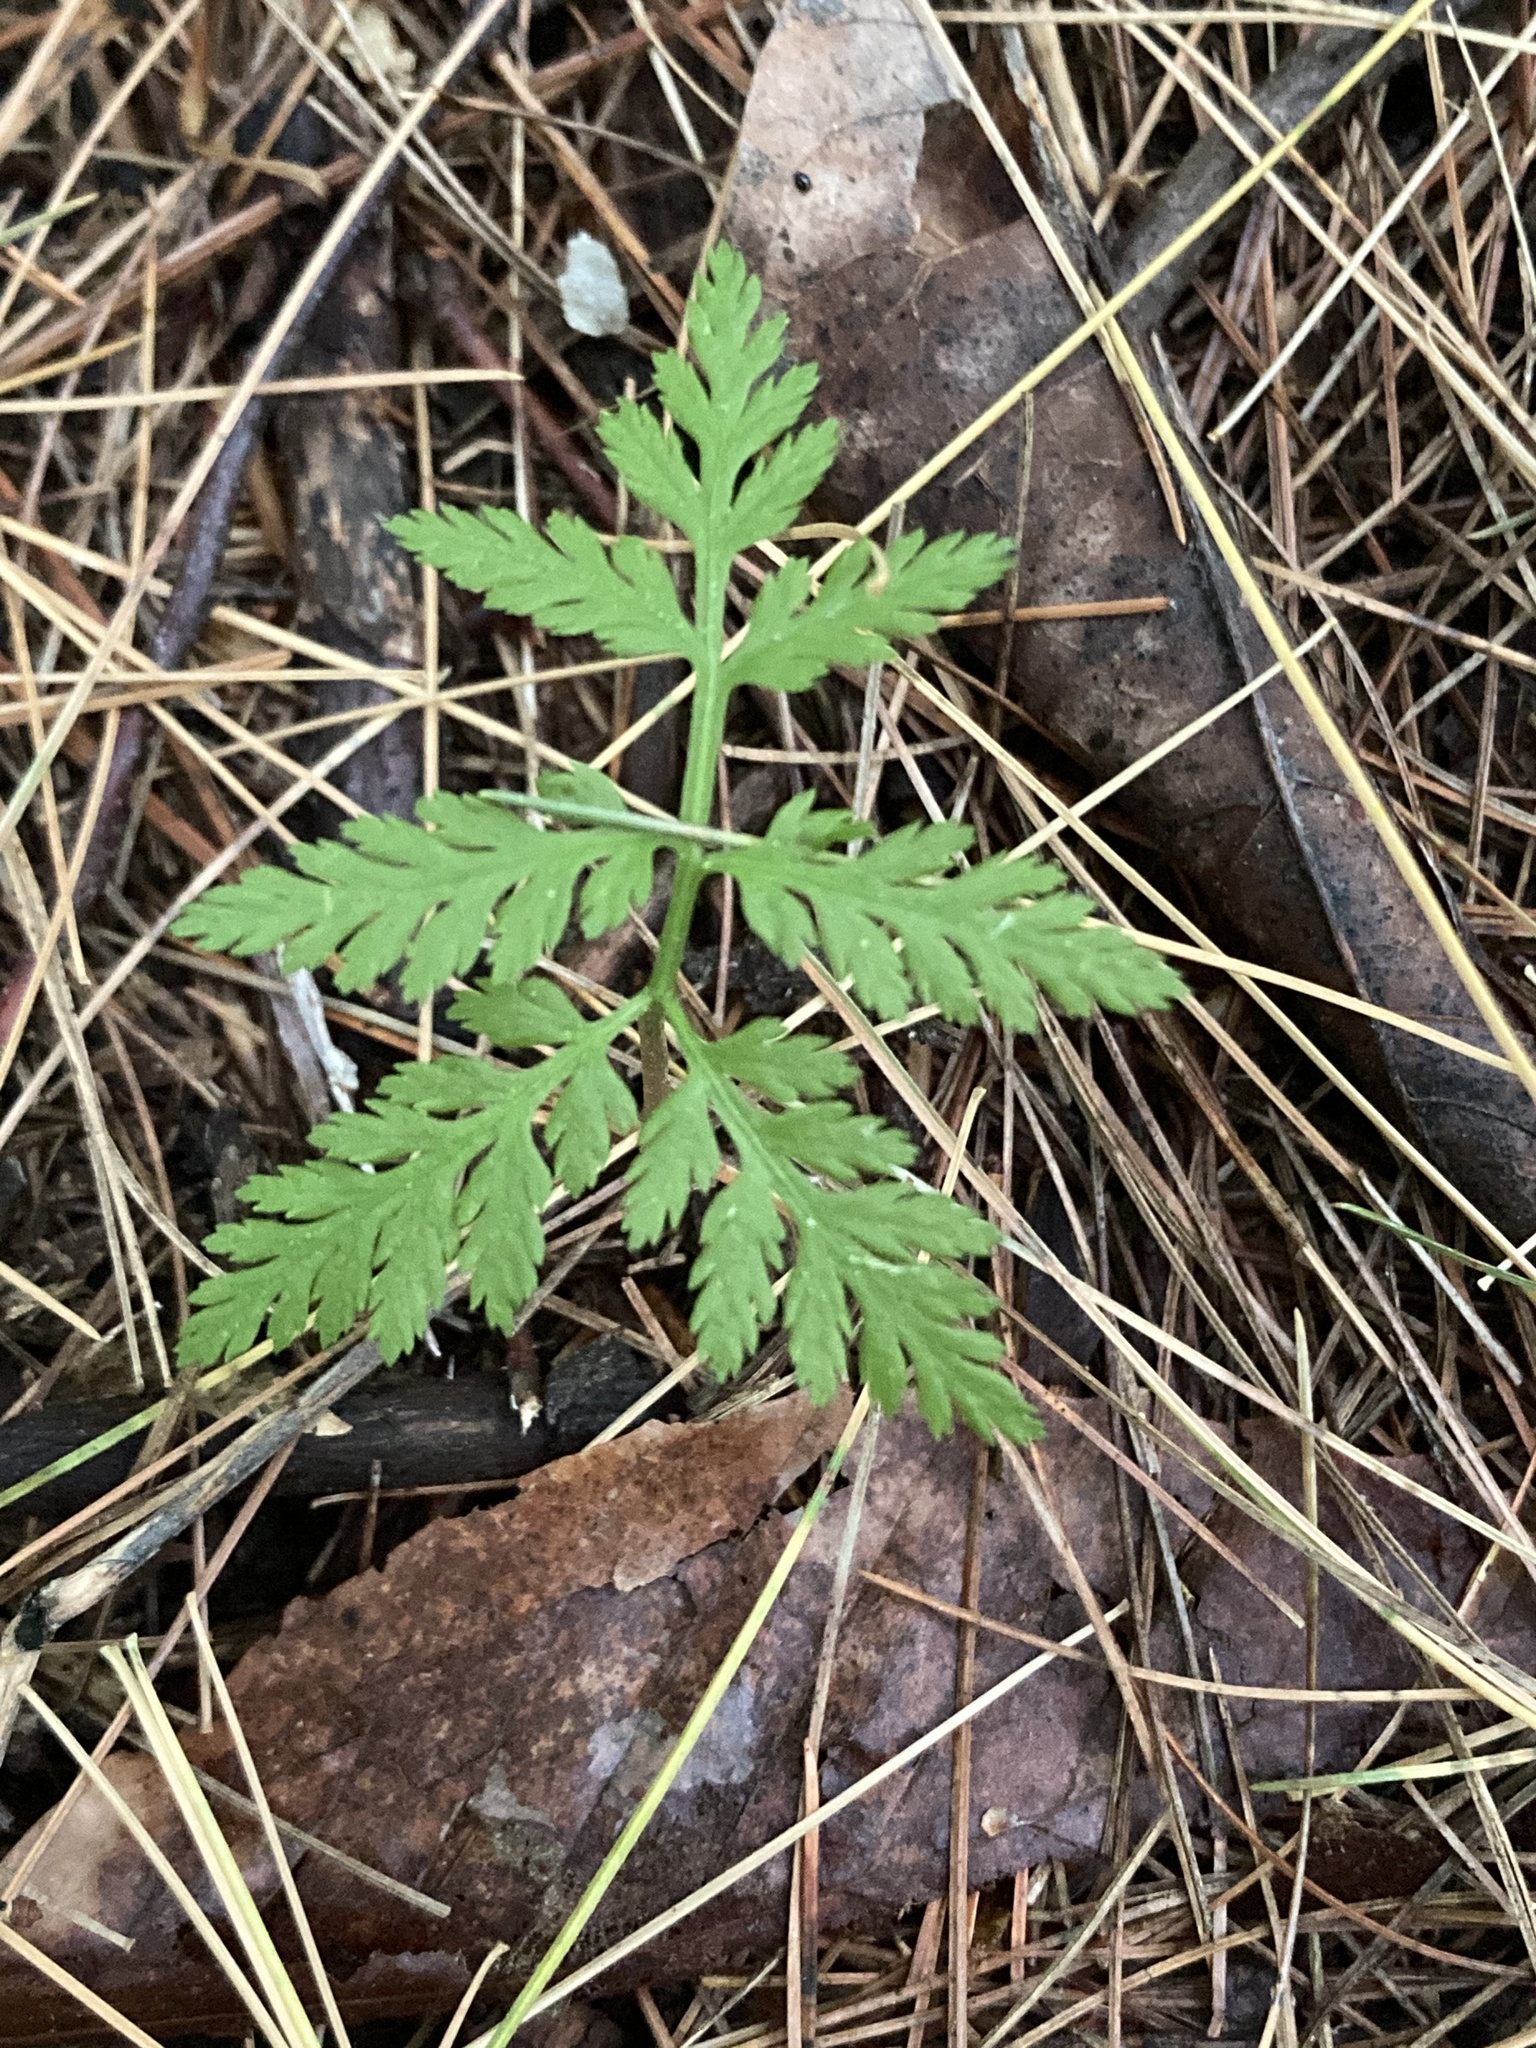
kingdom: Plantae
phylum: Tracheophyta
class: Polypodiopsida
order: Ophioglossales
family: Ophioglossaceae
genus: Botrypus
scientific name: Botrypus virginianus
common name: Common grapefern
